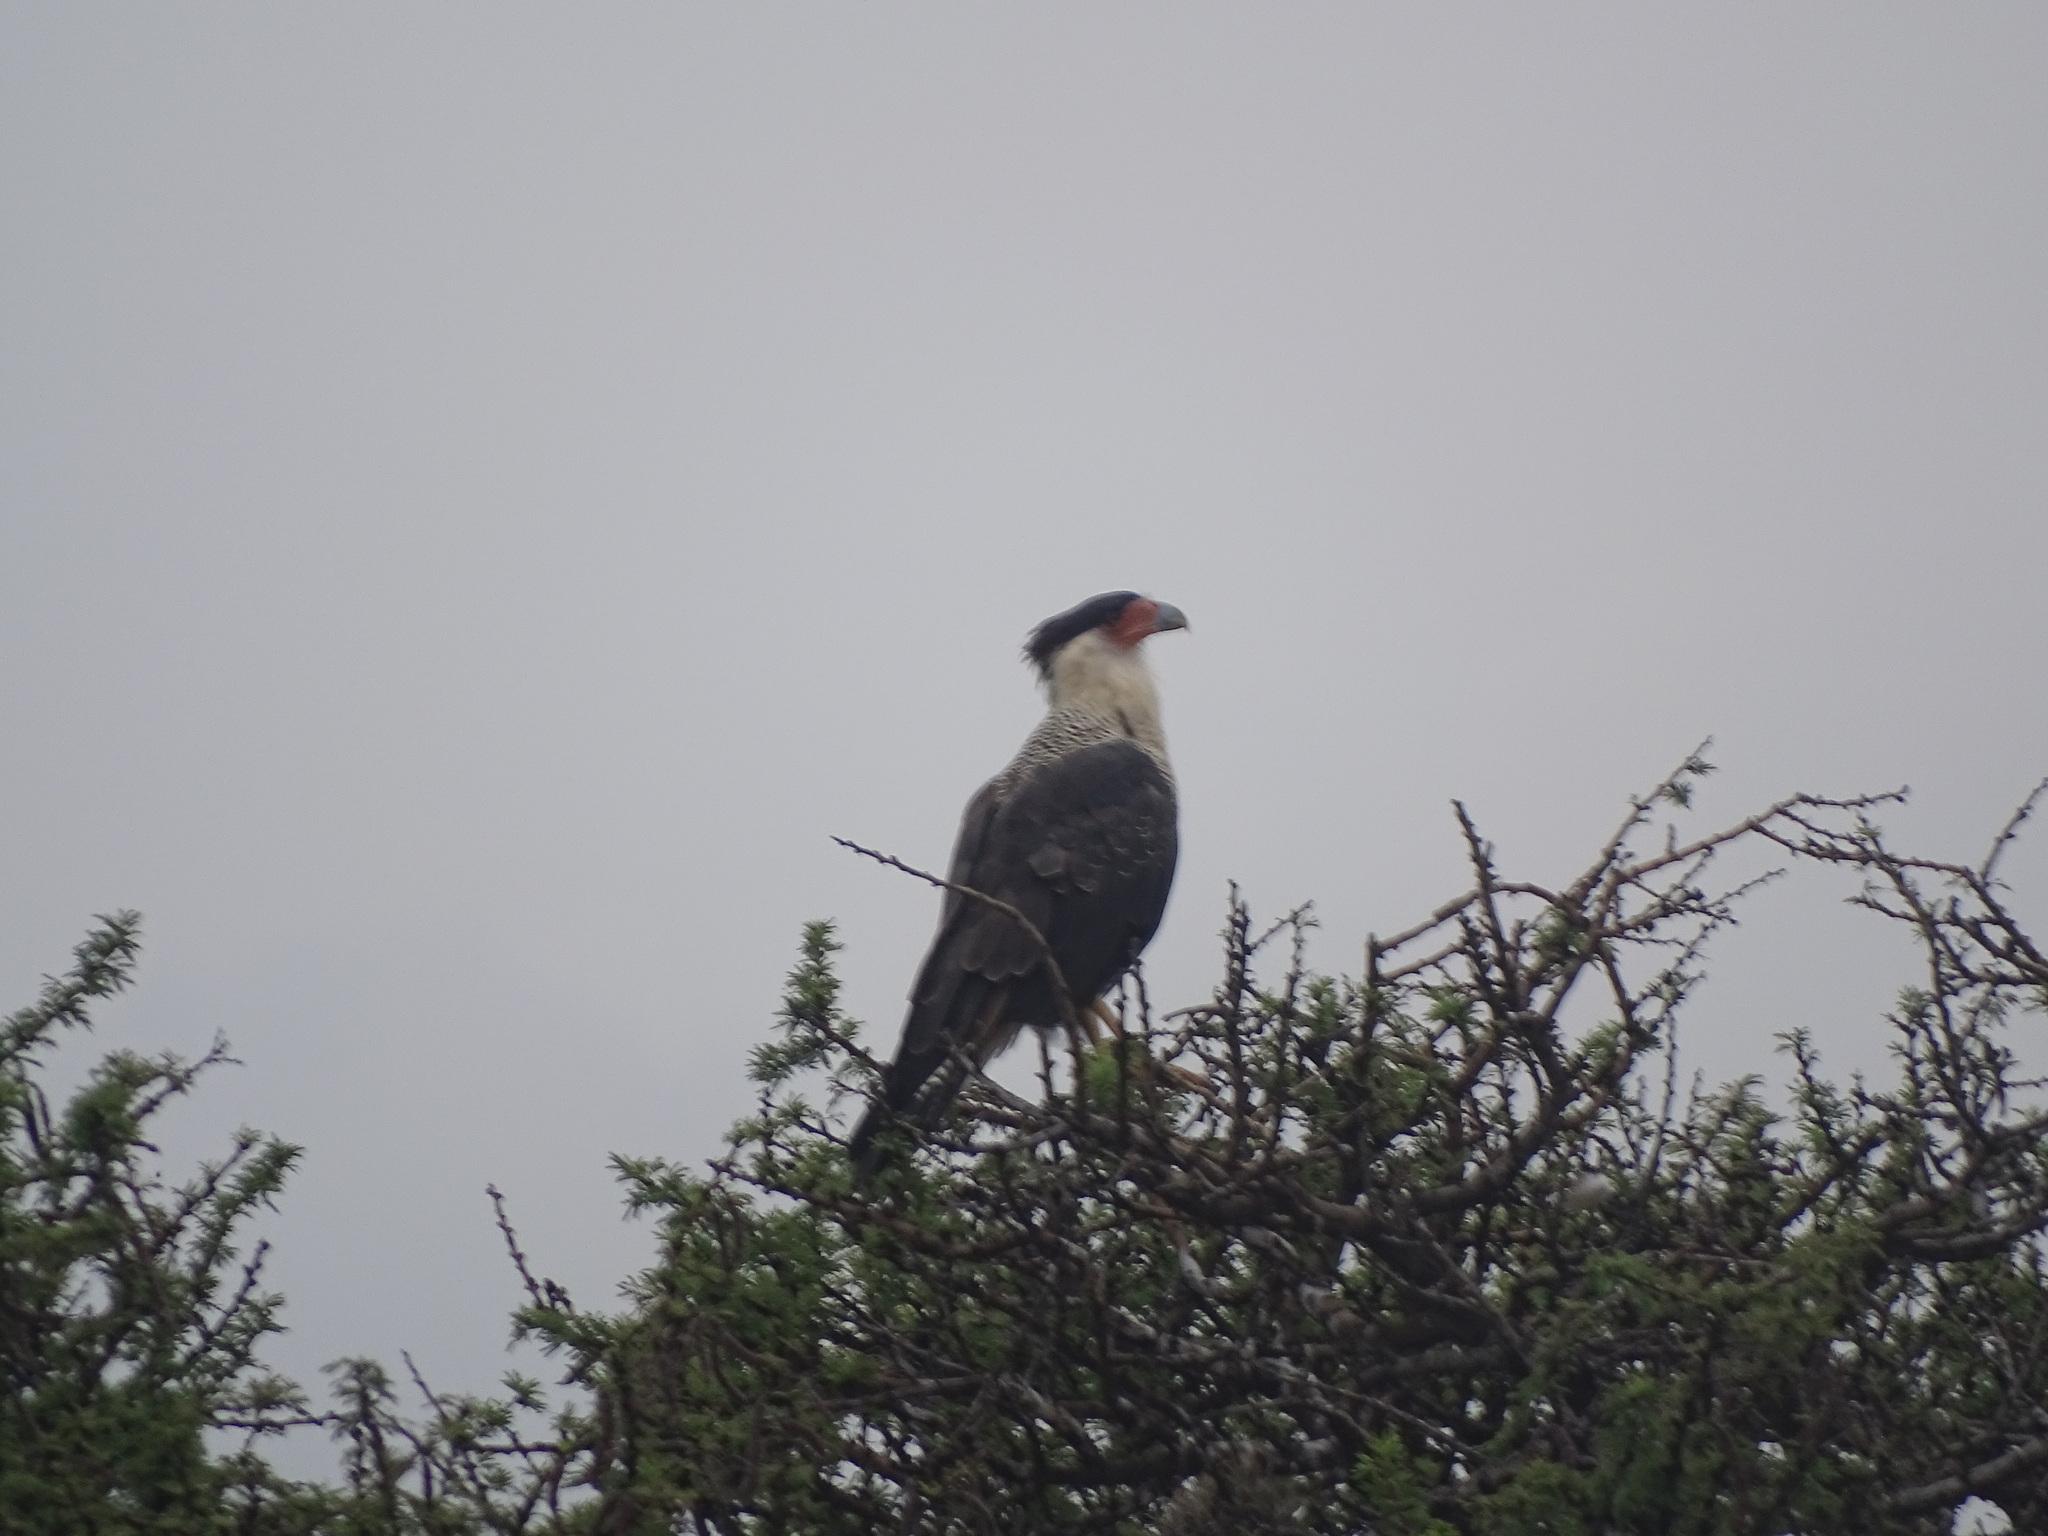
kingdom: Animalia
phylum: Chordata
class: Aves
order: Falconiformes
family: Falconidae
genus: Caracara
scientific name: Caracara plancus
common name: Southern caracara
